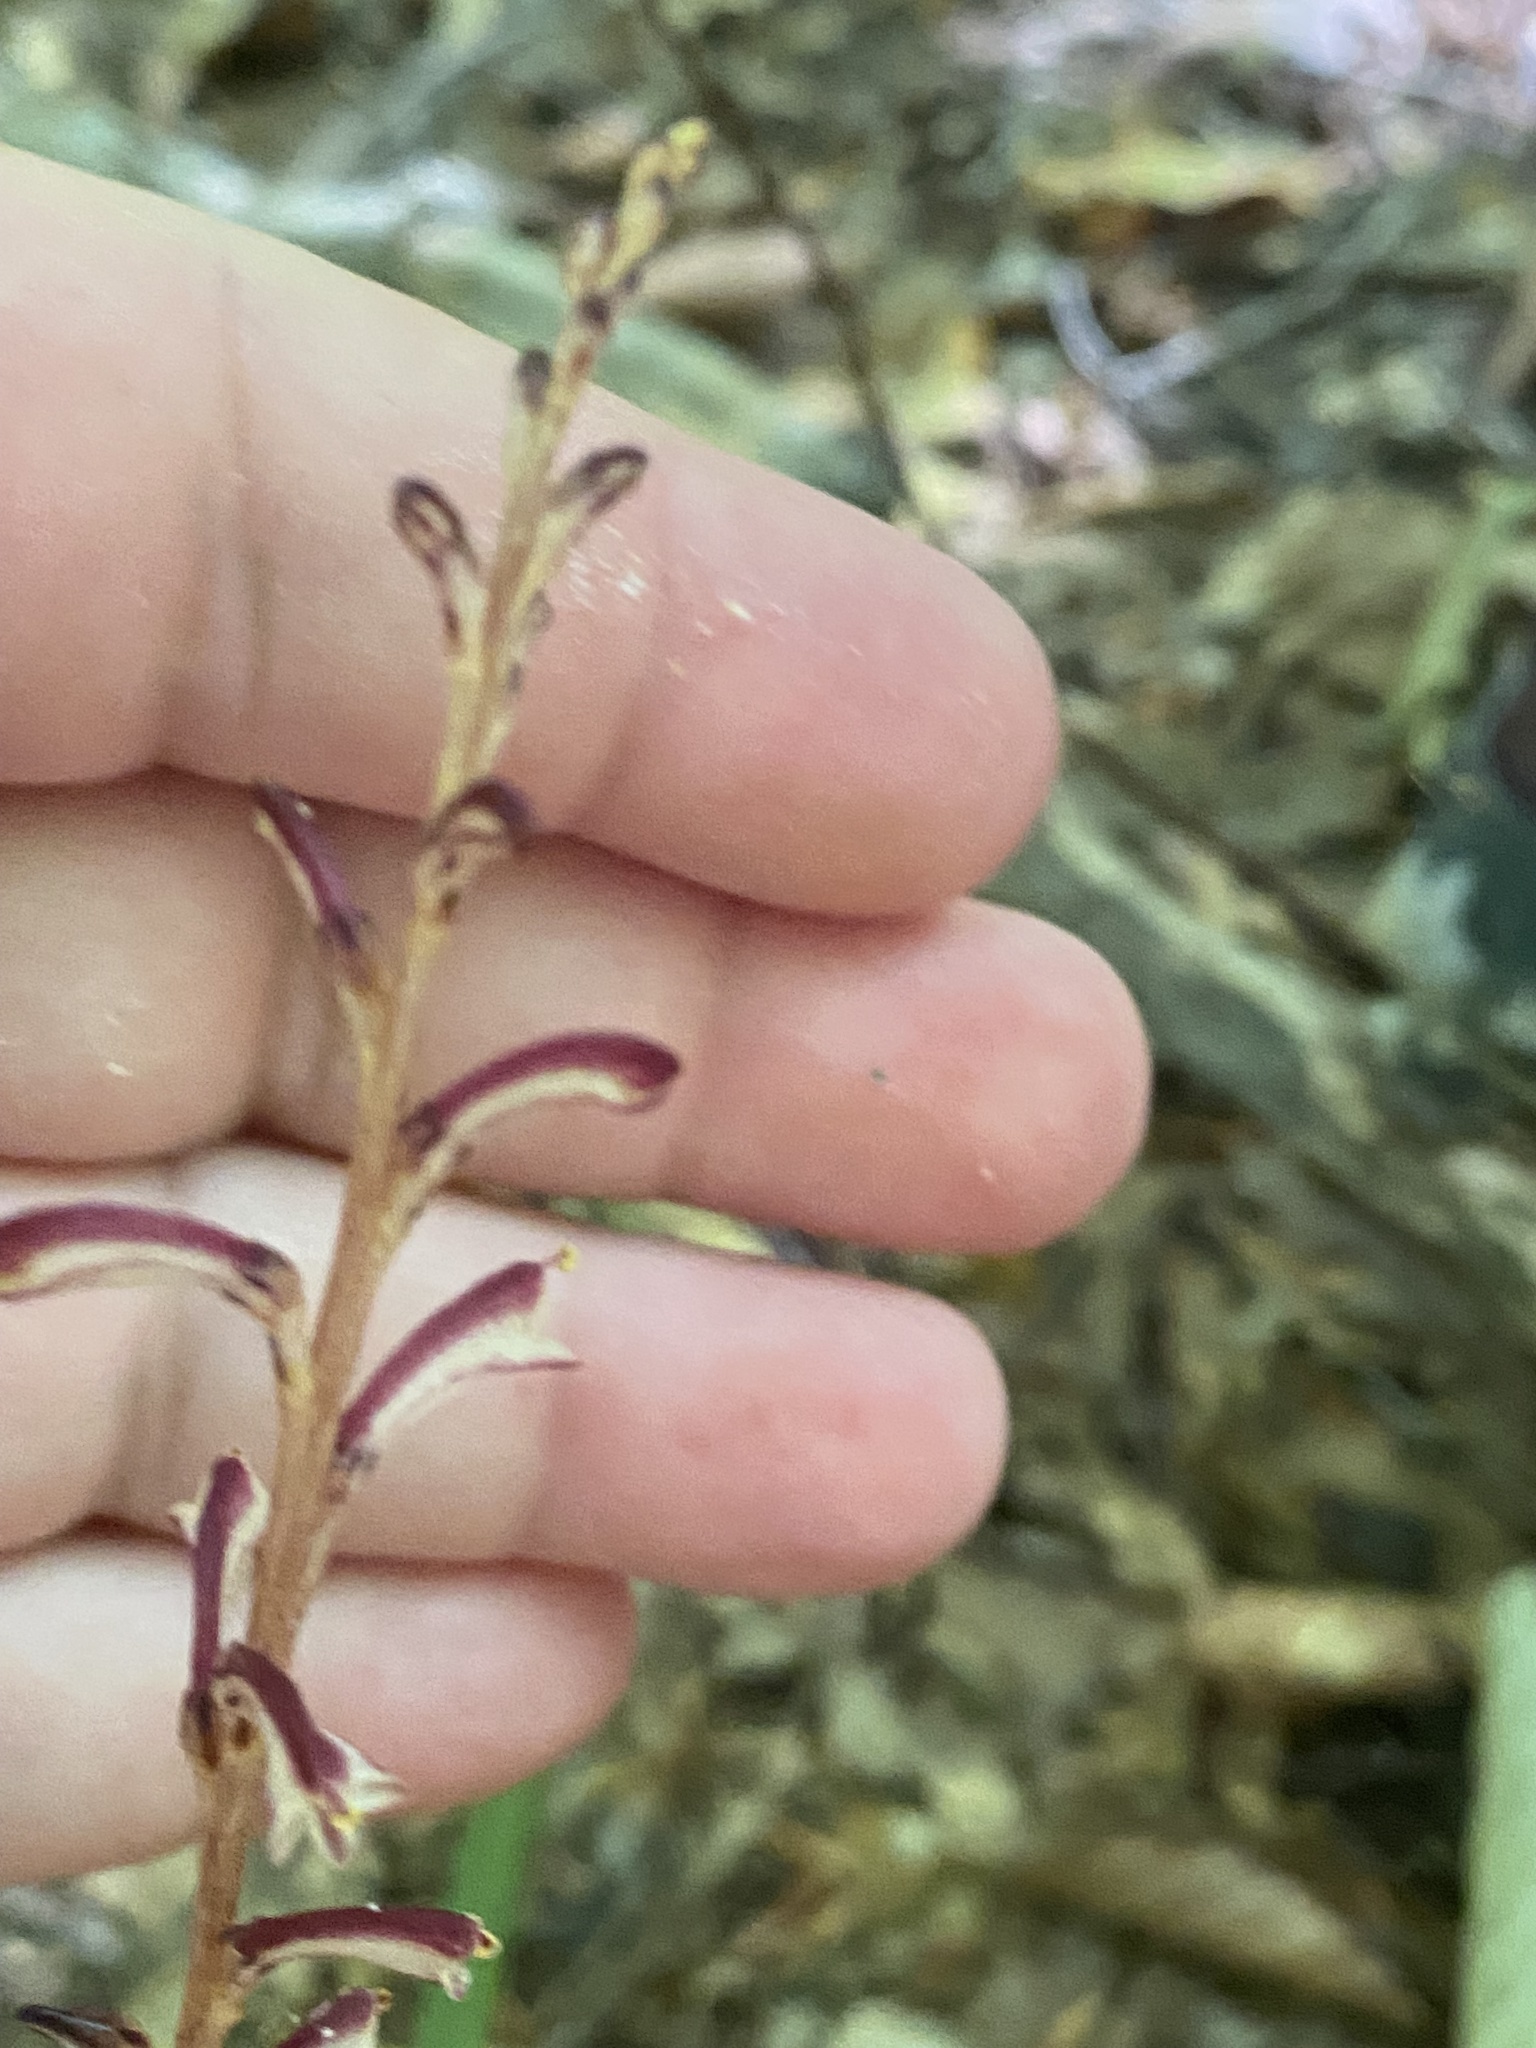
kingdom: Plantae
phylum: Tracheophyta
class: Magnoliopsida
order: Lamiales
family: Orobanchaceae
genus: Epifagus
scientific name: Epifagus virginiana
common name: Beechdrops
